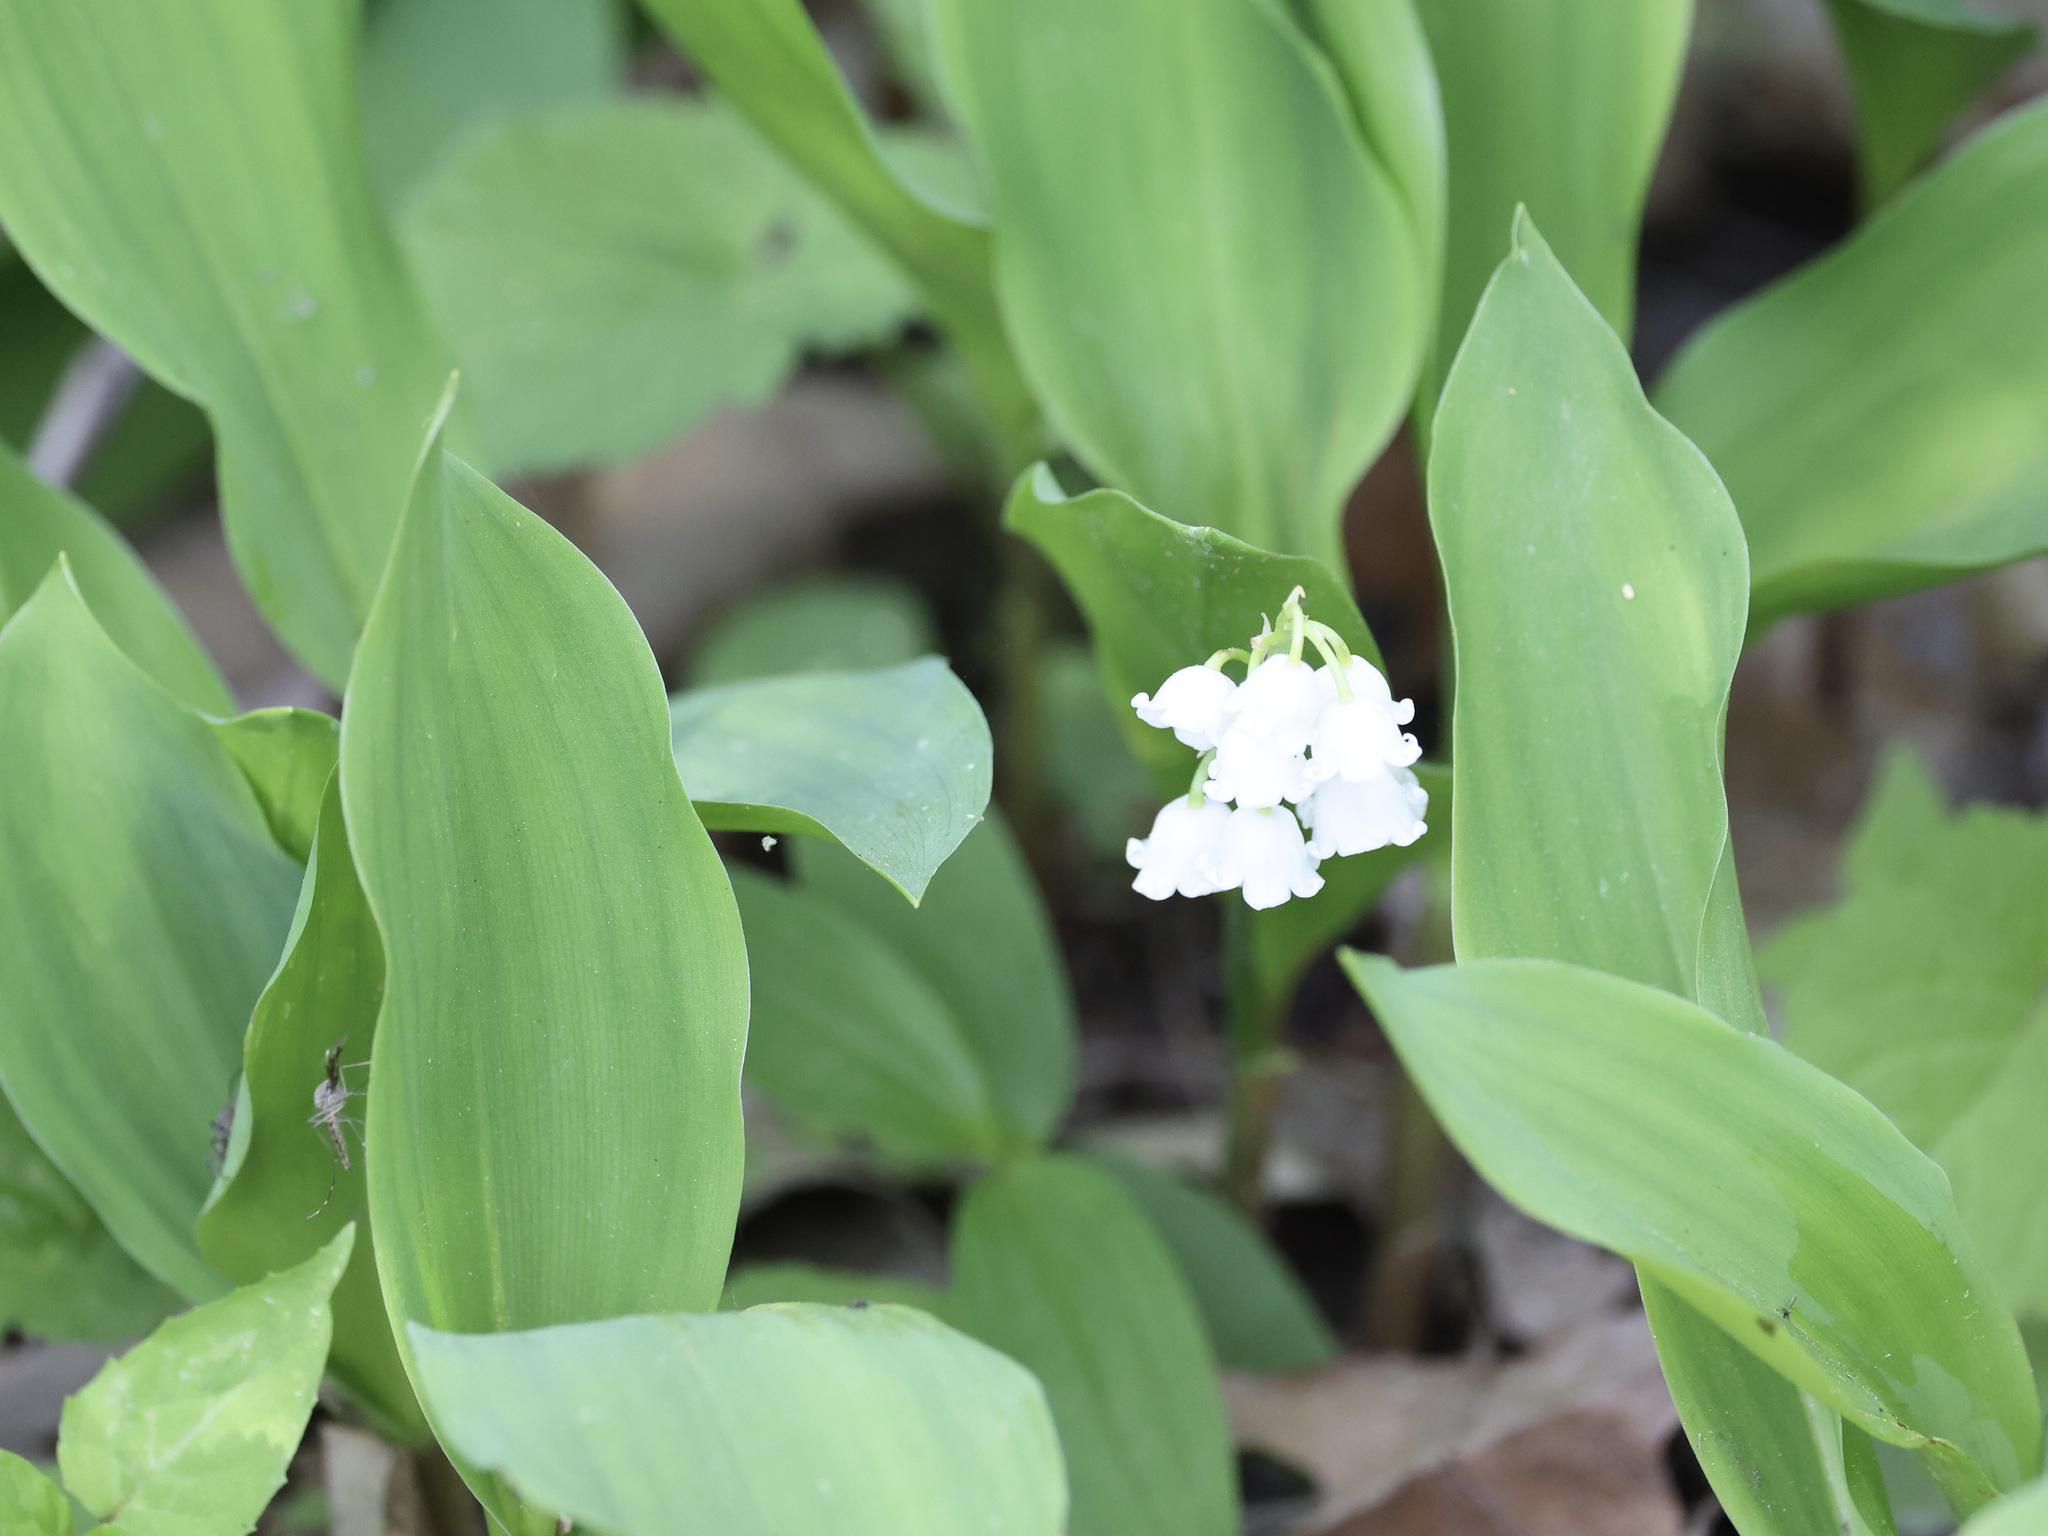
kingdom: Plantae
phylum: Tracheophyta
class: Liliopsida
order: Asparagales
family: Asparagaceae
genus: Convallaria
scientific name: Convallaria majalis
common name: Lily-of-the-valley
